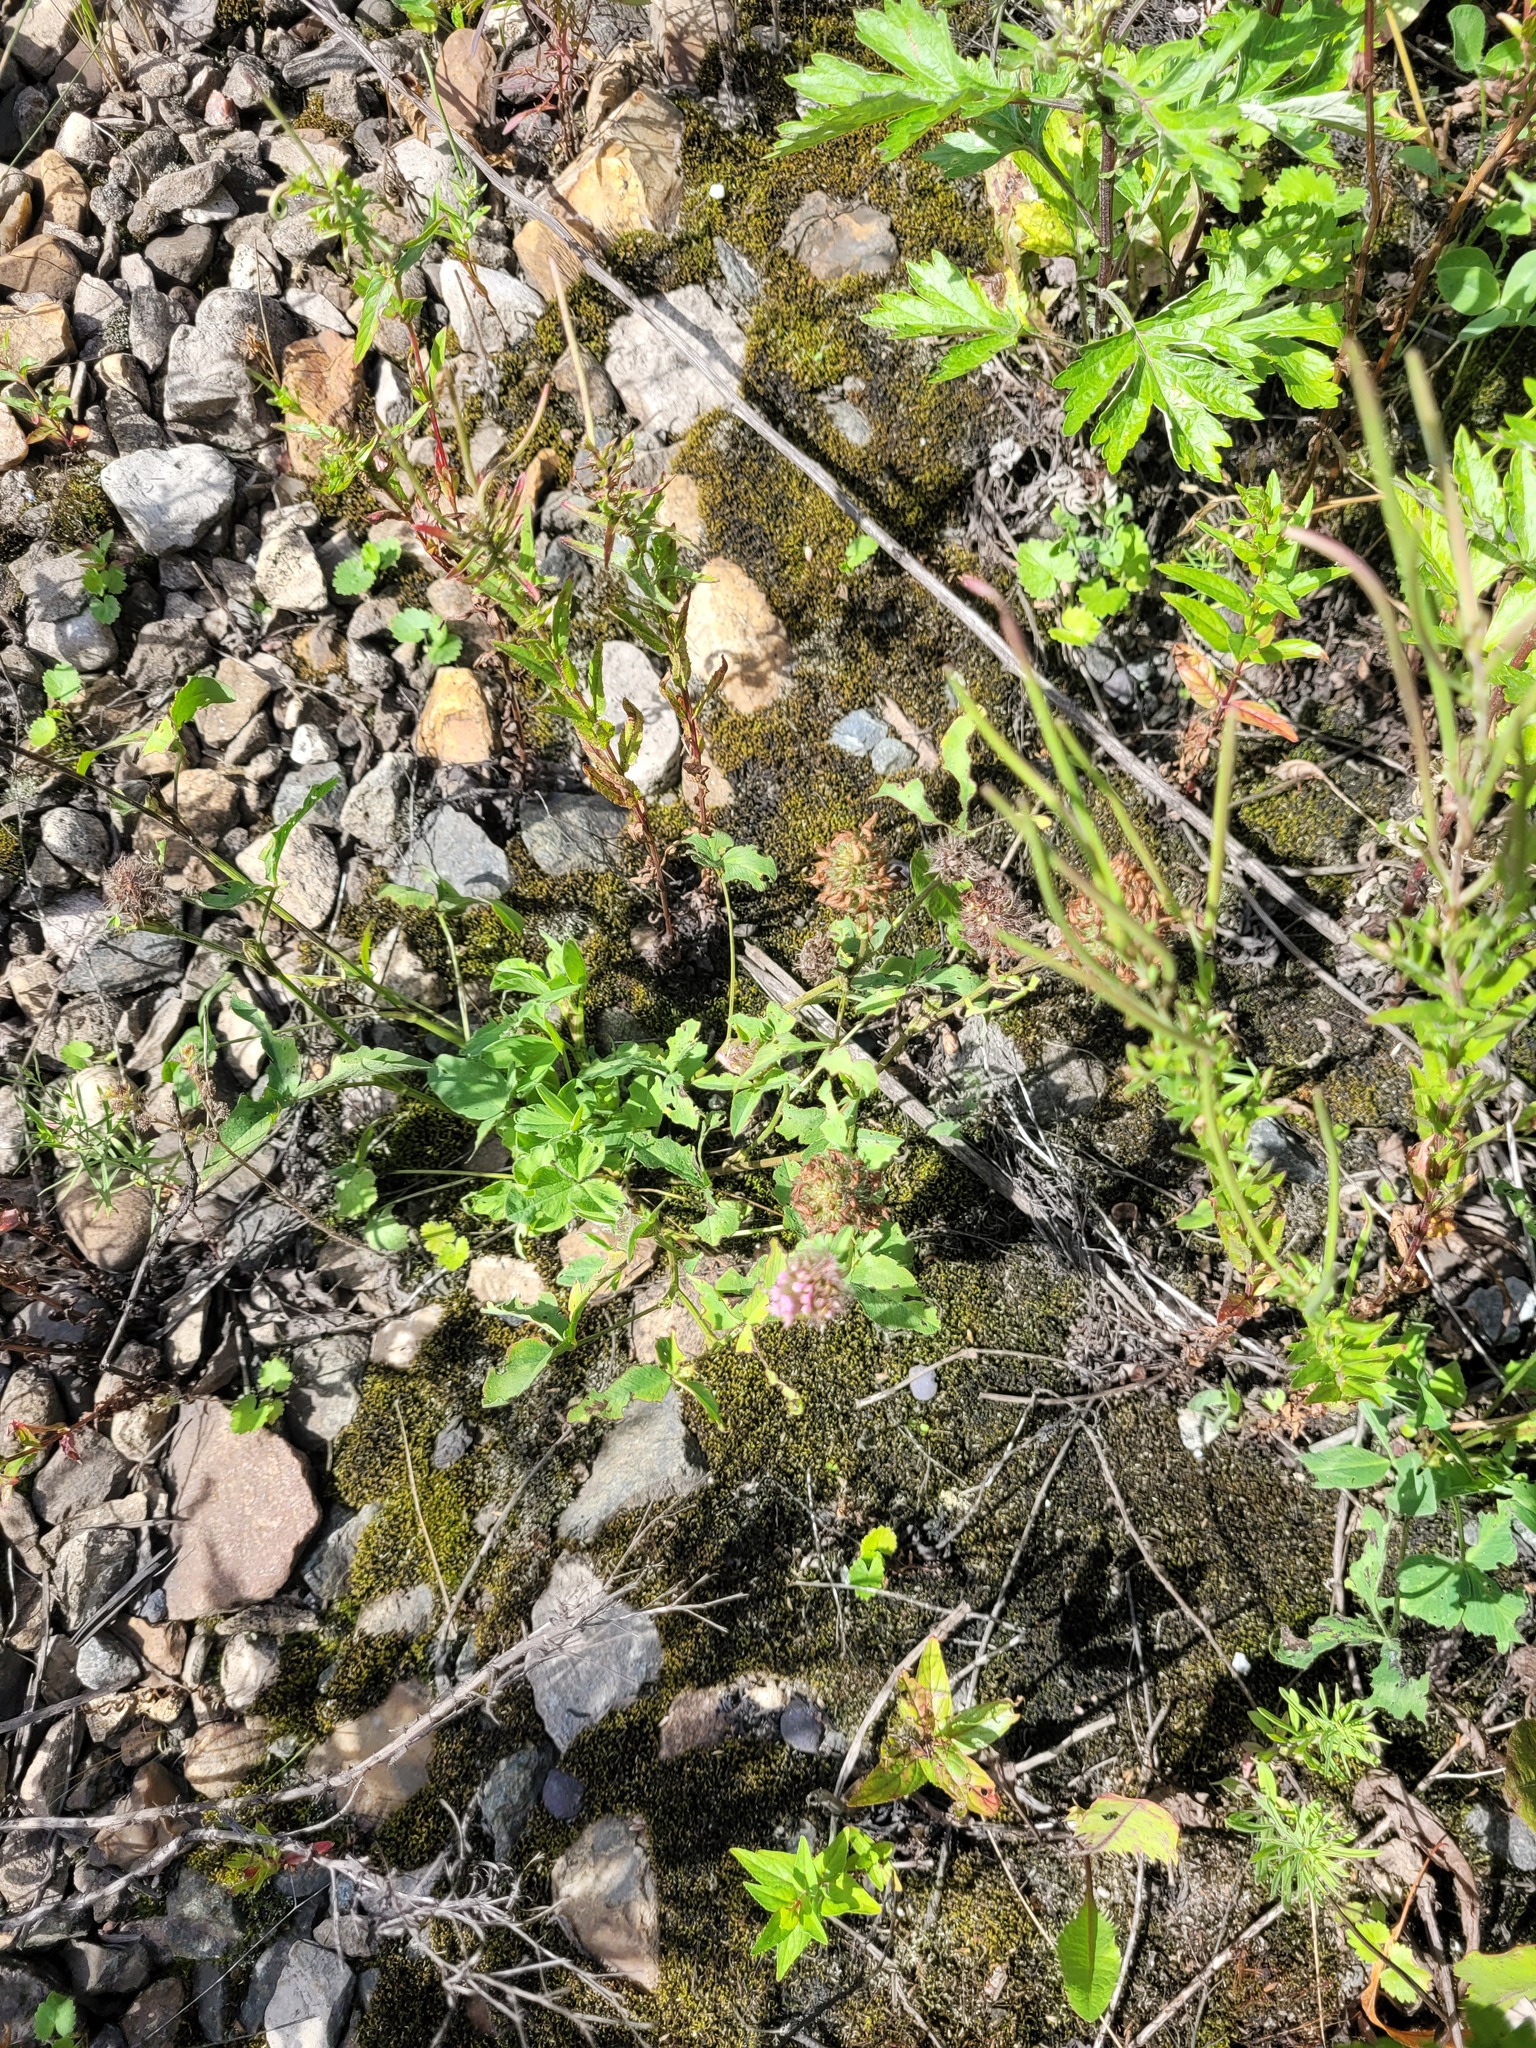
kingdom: Plantae
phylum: Tracheophyta
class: Magnoliopsida
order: Fabales
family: Fabaceae
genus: Trifolium
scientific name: Trifolium pratense
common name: Red clover
